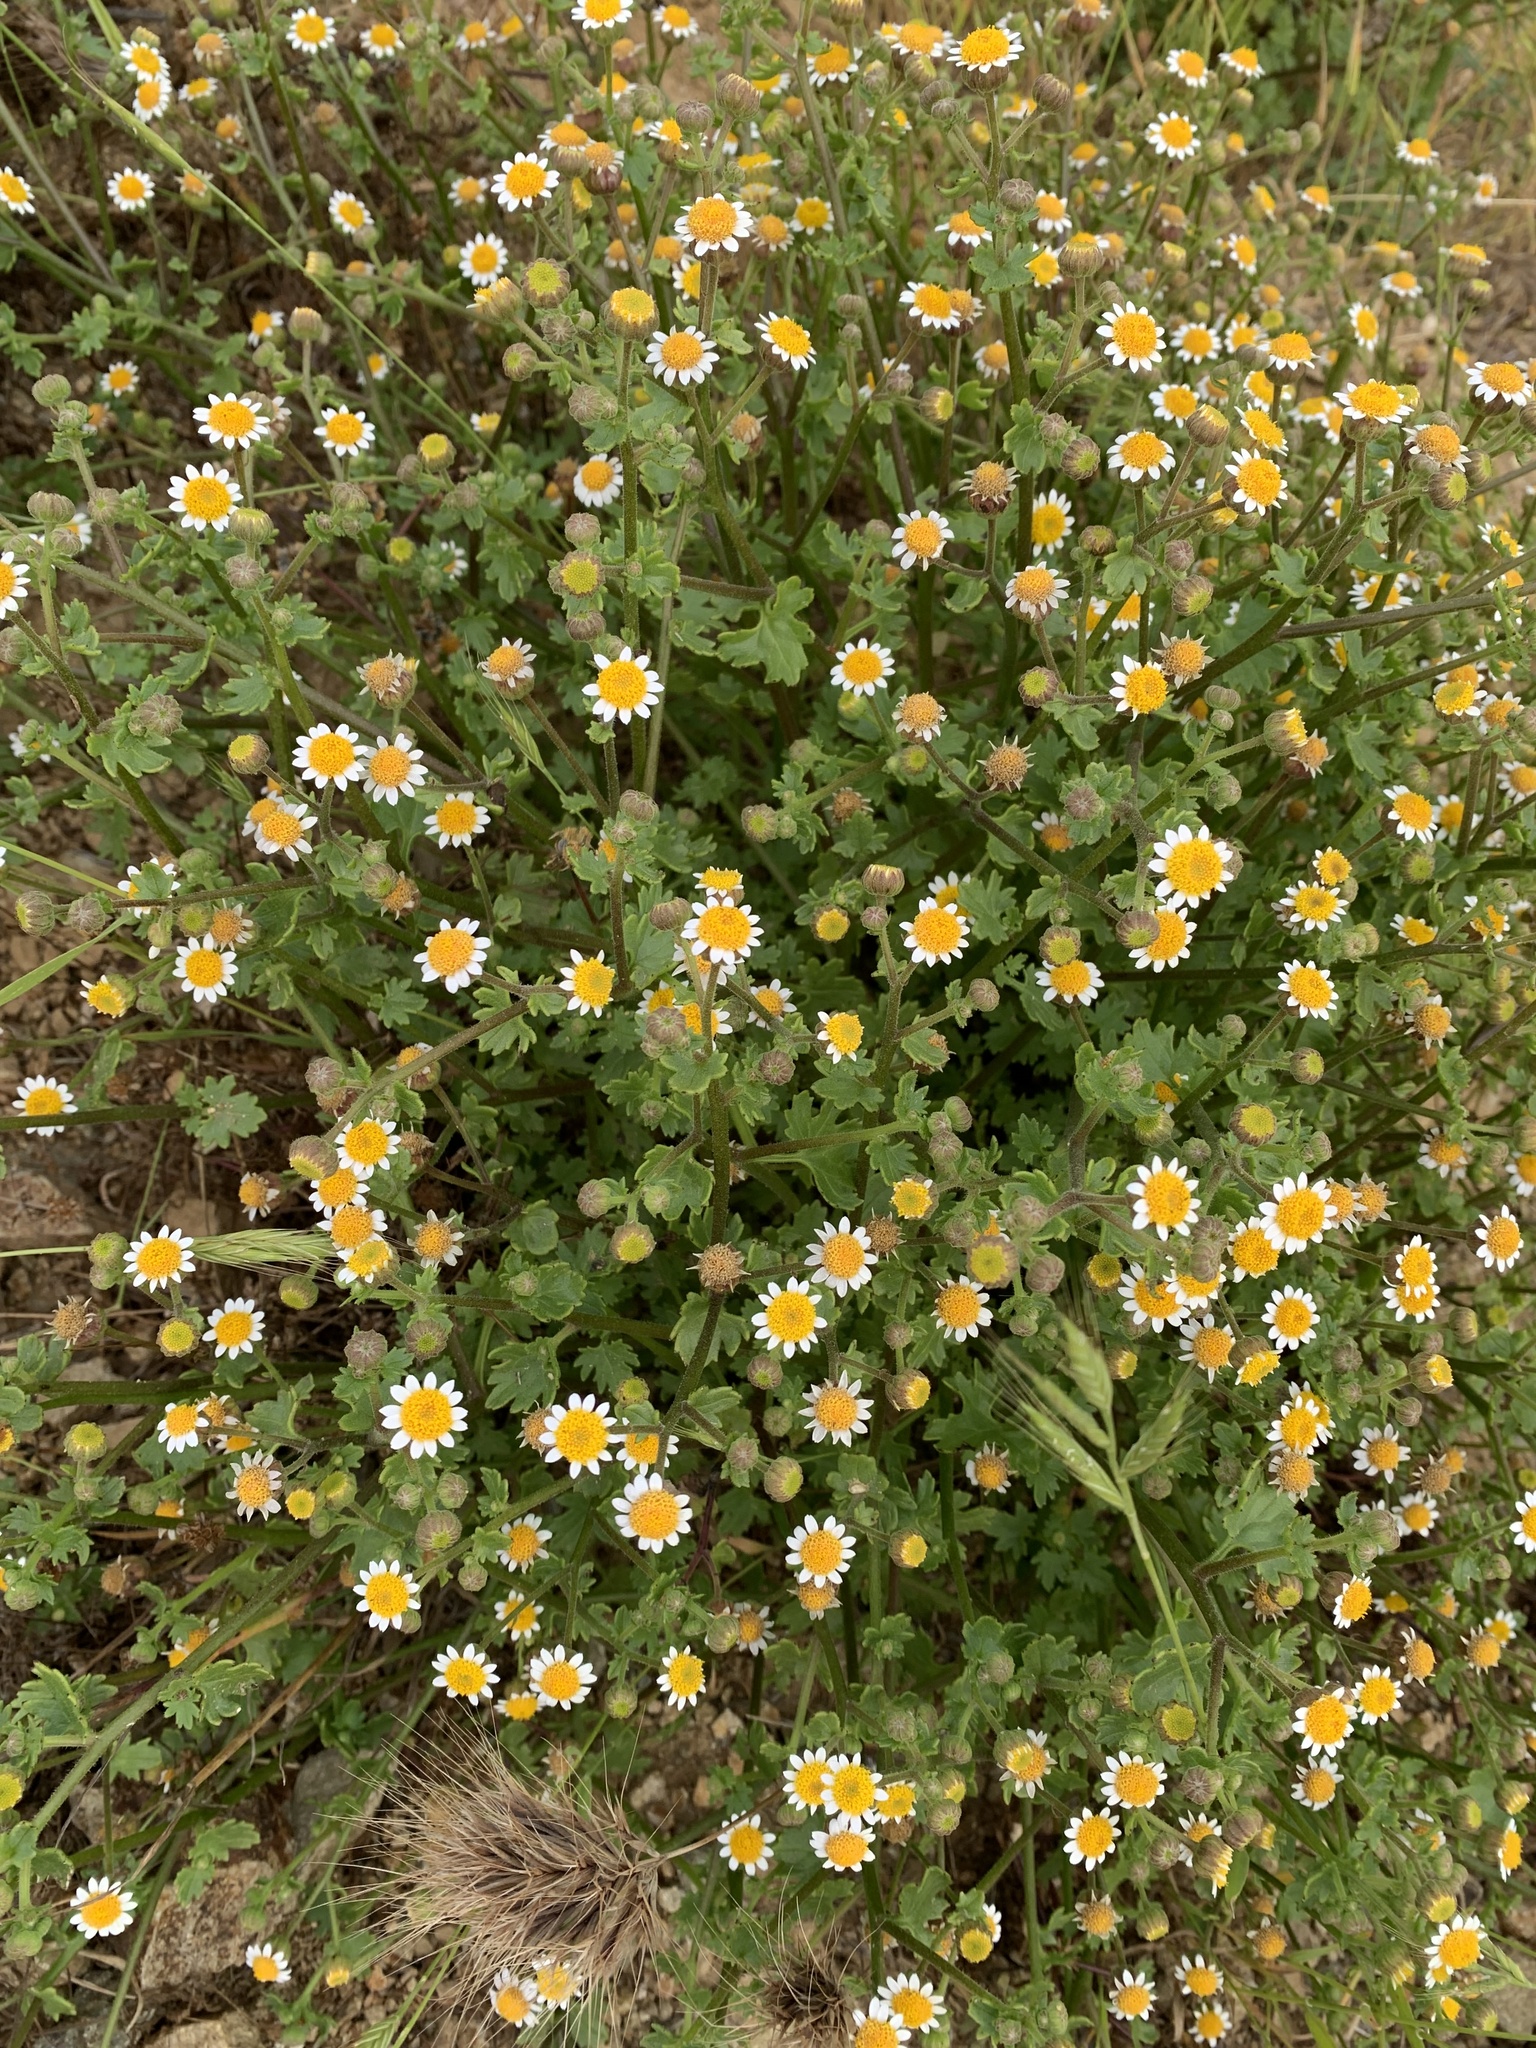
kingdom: Plantae
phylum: Tracheophyta
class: Magnoliopsida
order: Asterales
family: Asteraceae
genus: Laphamia
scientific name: Laphamia emoryi
